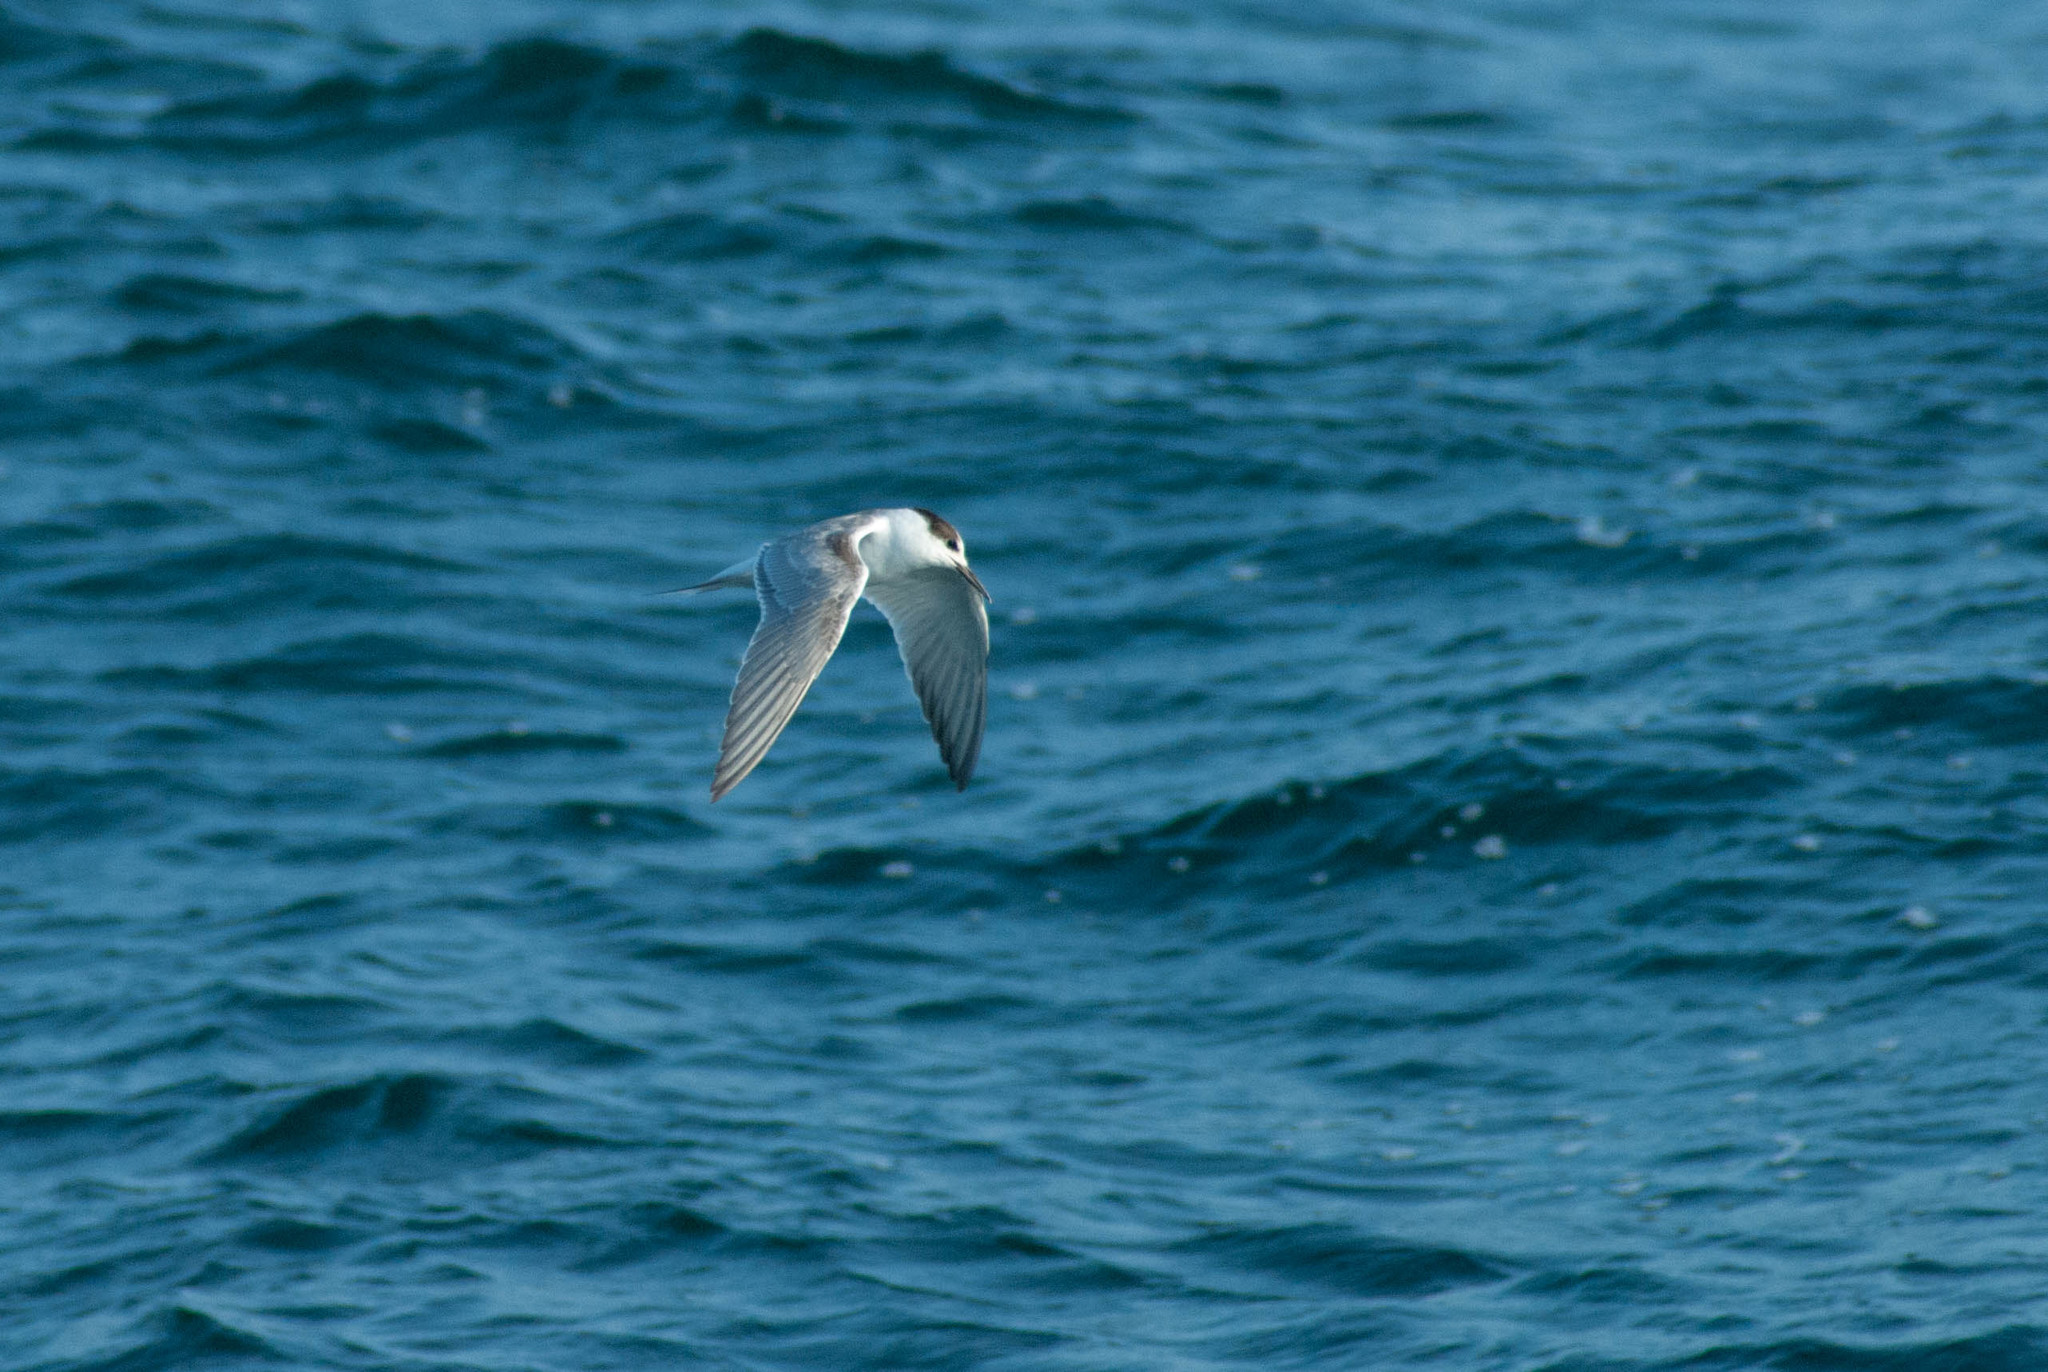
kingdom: Animalia
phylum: Chordata
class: Aves
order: Charadriiformes
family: Laridae
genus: Sterna
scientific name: Sterna hirundo
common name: Common tern
